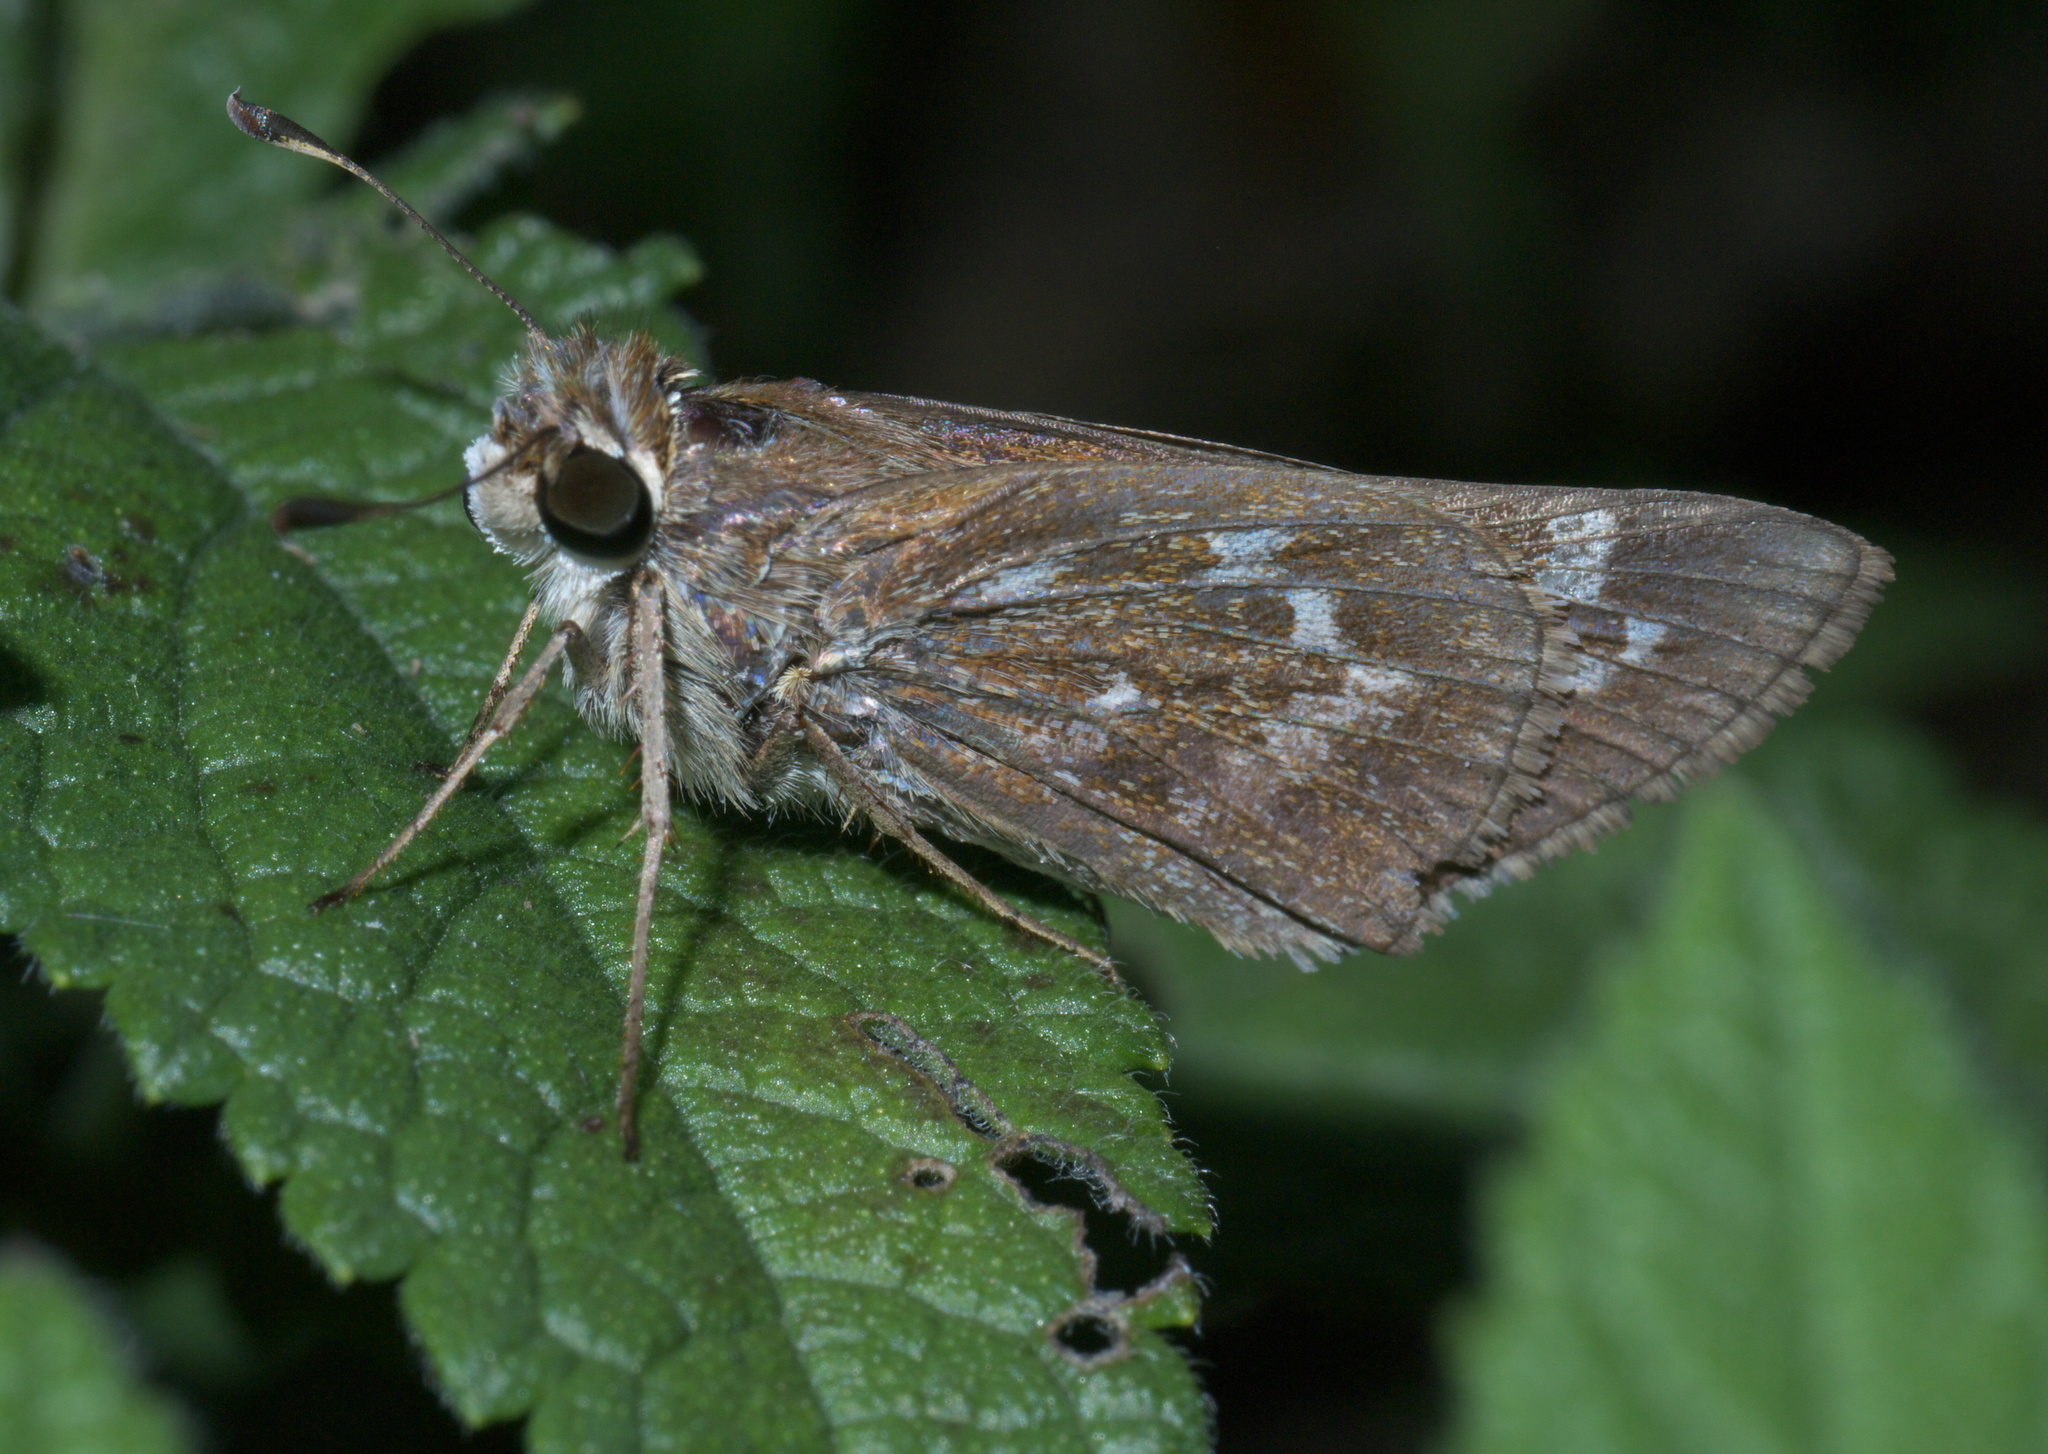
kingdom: Animalia
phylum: Arthropoda
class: Insecta
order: Lepidoptera
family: Hesperiidae
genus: Atalopedes
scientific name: Atalopedes
